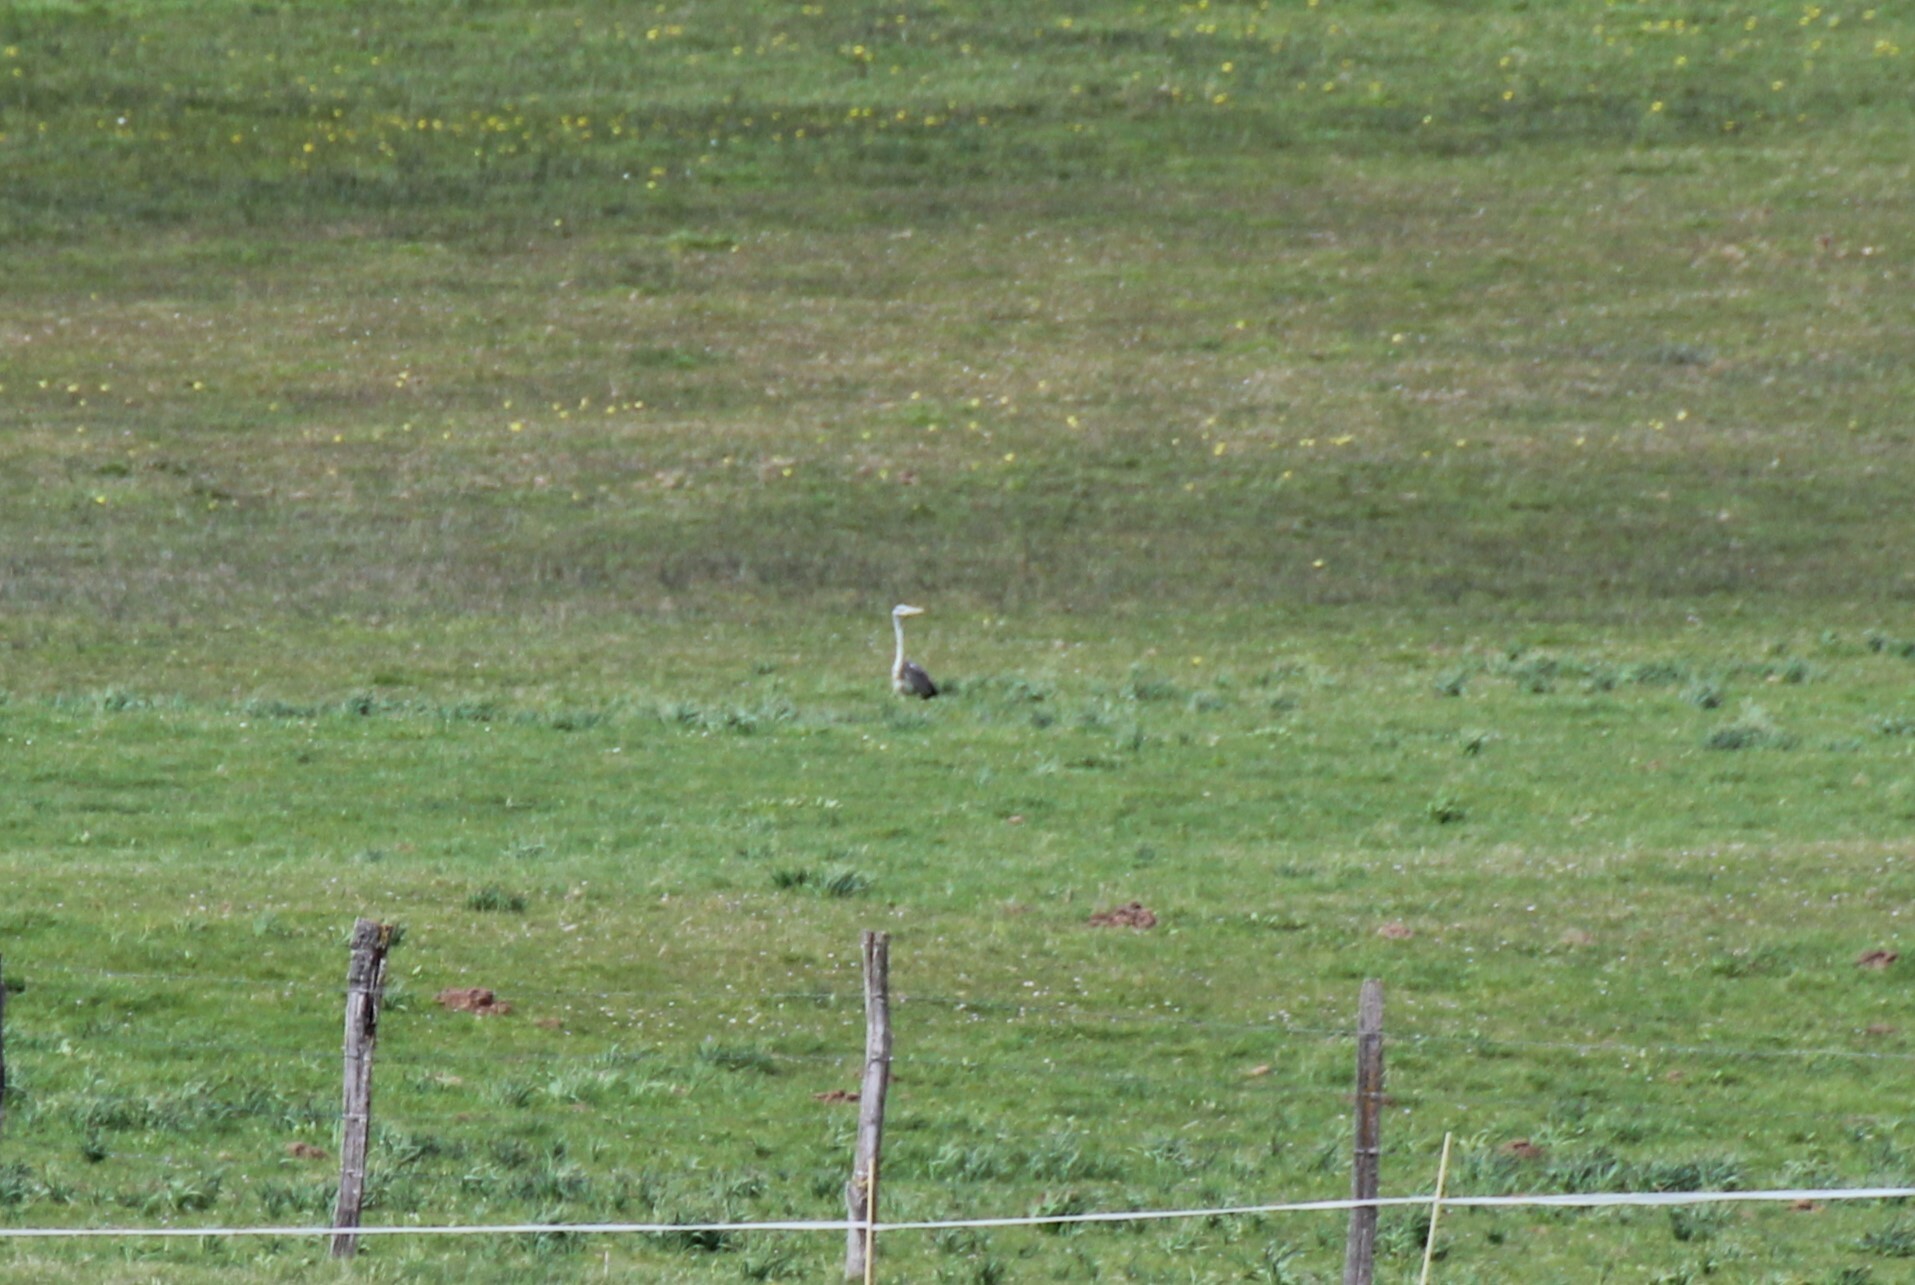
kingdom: Animalia
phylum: Chordata
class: Aves
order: Pelecaniformes
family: Ardeidae
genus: Ardea
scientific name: Ardea cinerea
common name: Grey heron
